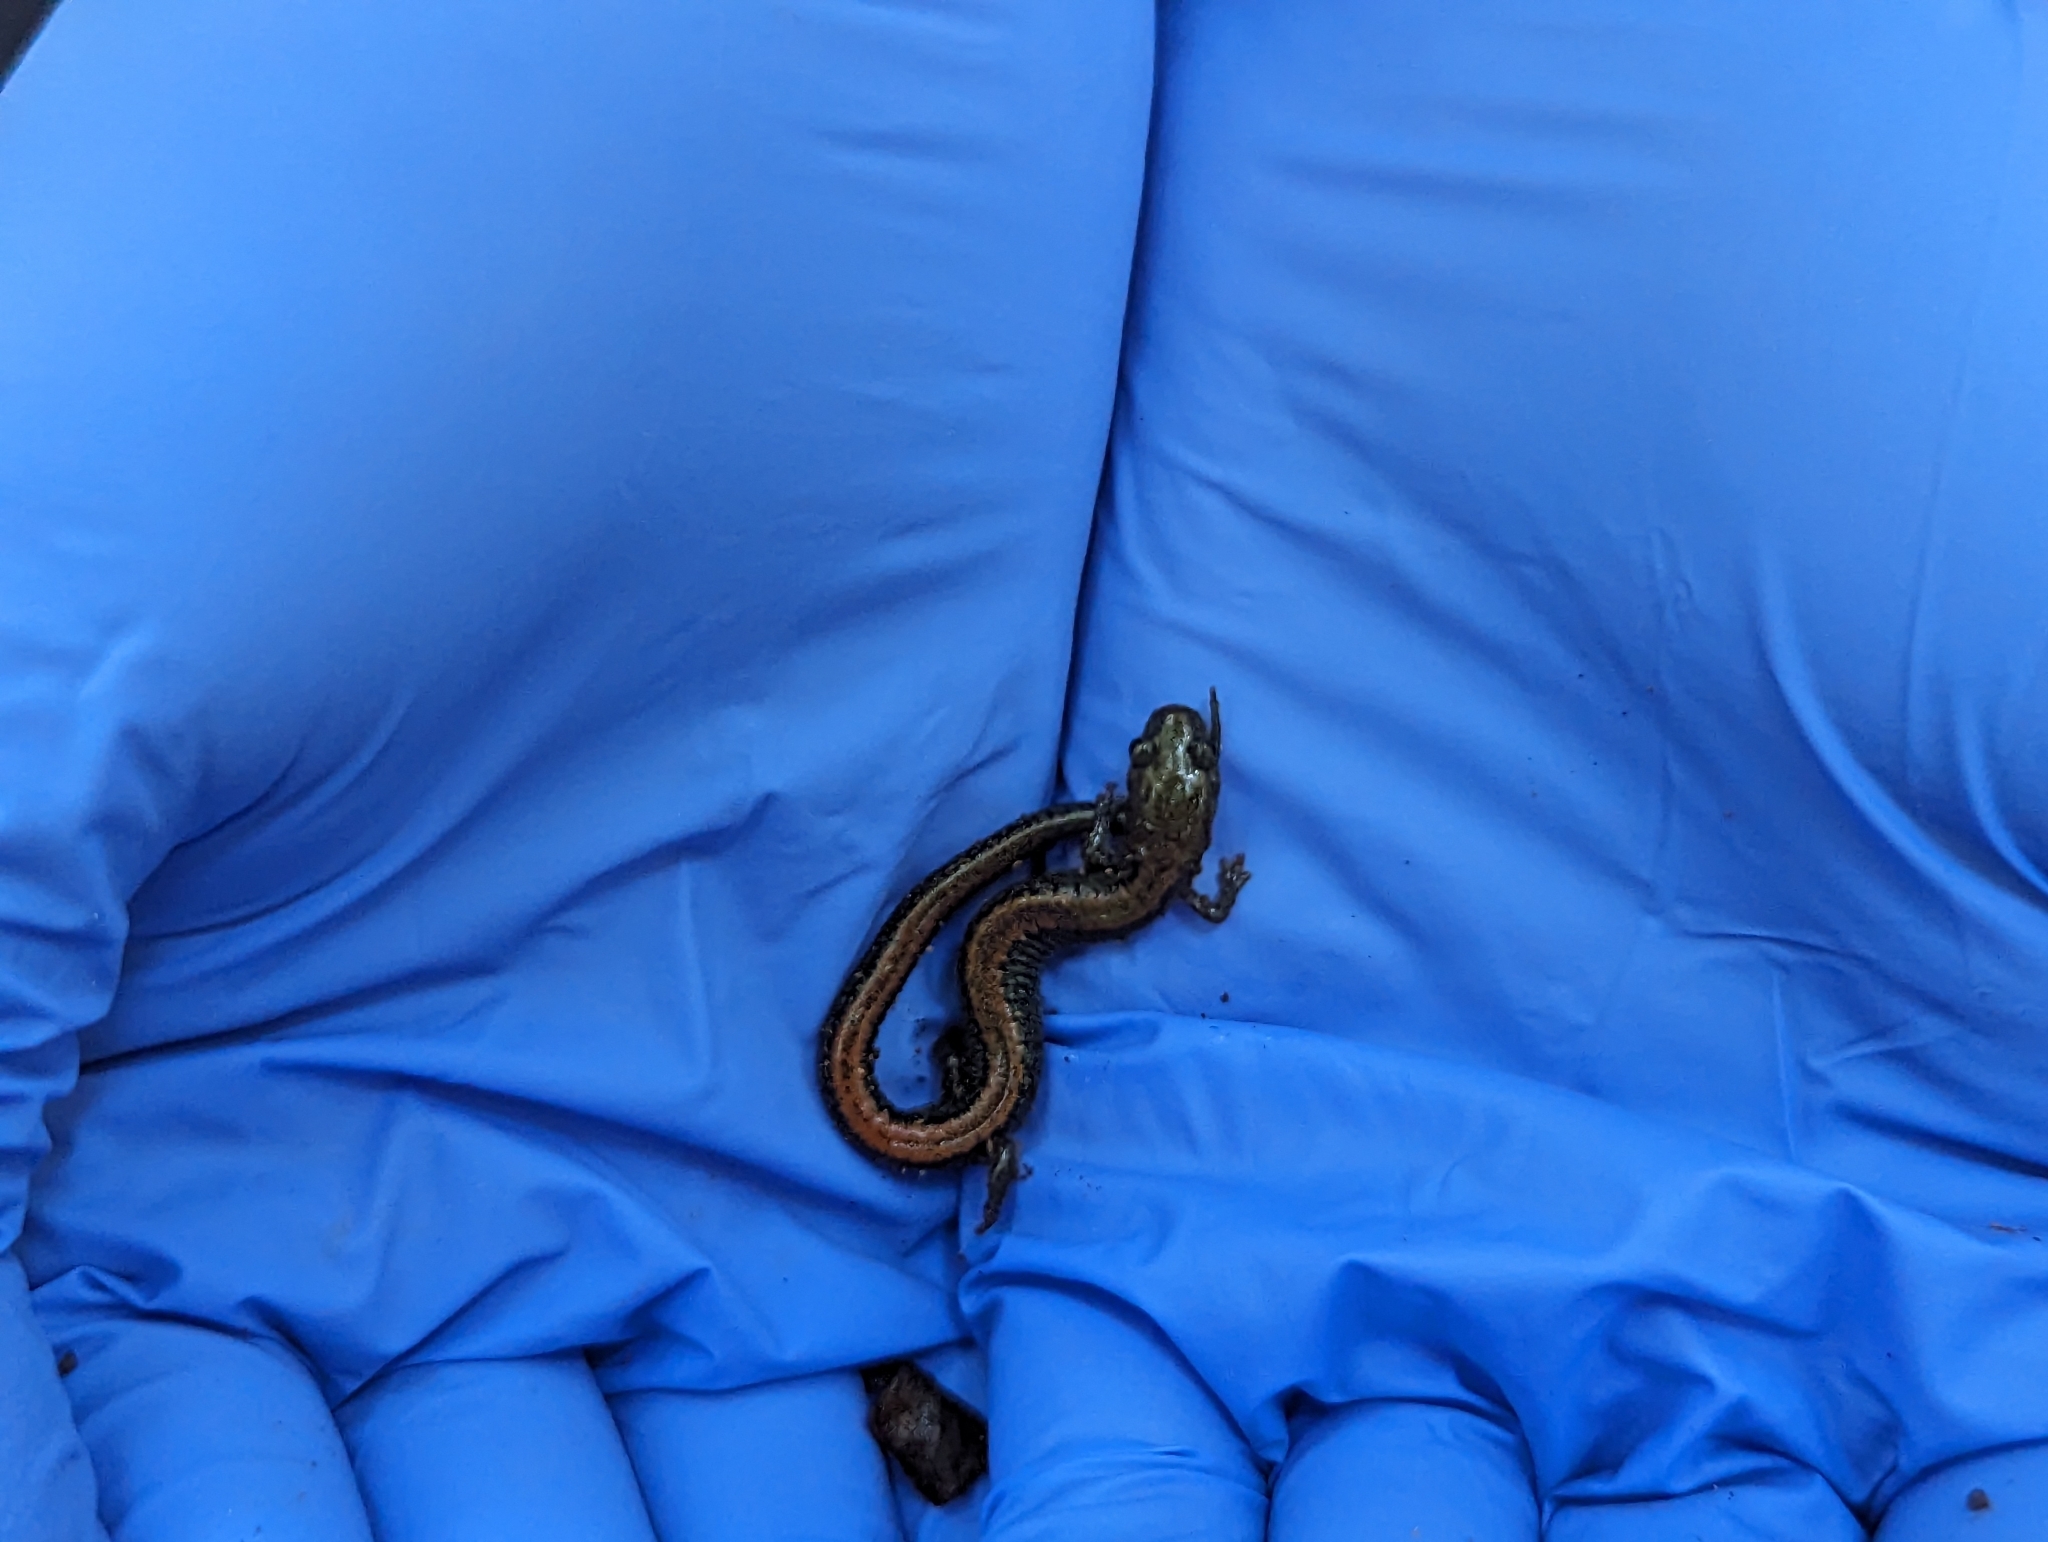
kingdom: Animalia
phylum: Chordata
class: Amphibia
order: Caudata
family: Plethodontidae
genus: Plethodon
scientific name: Plethodon cinereus
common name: Redback salamander
